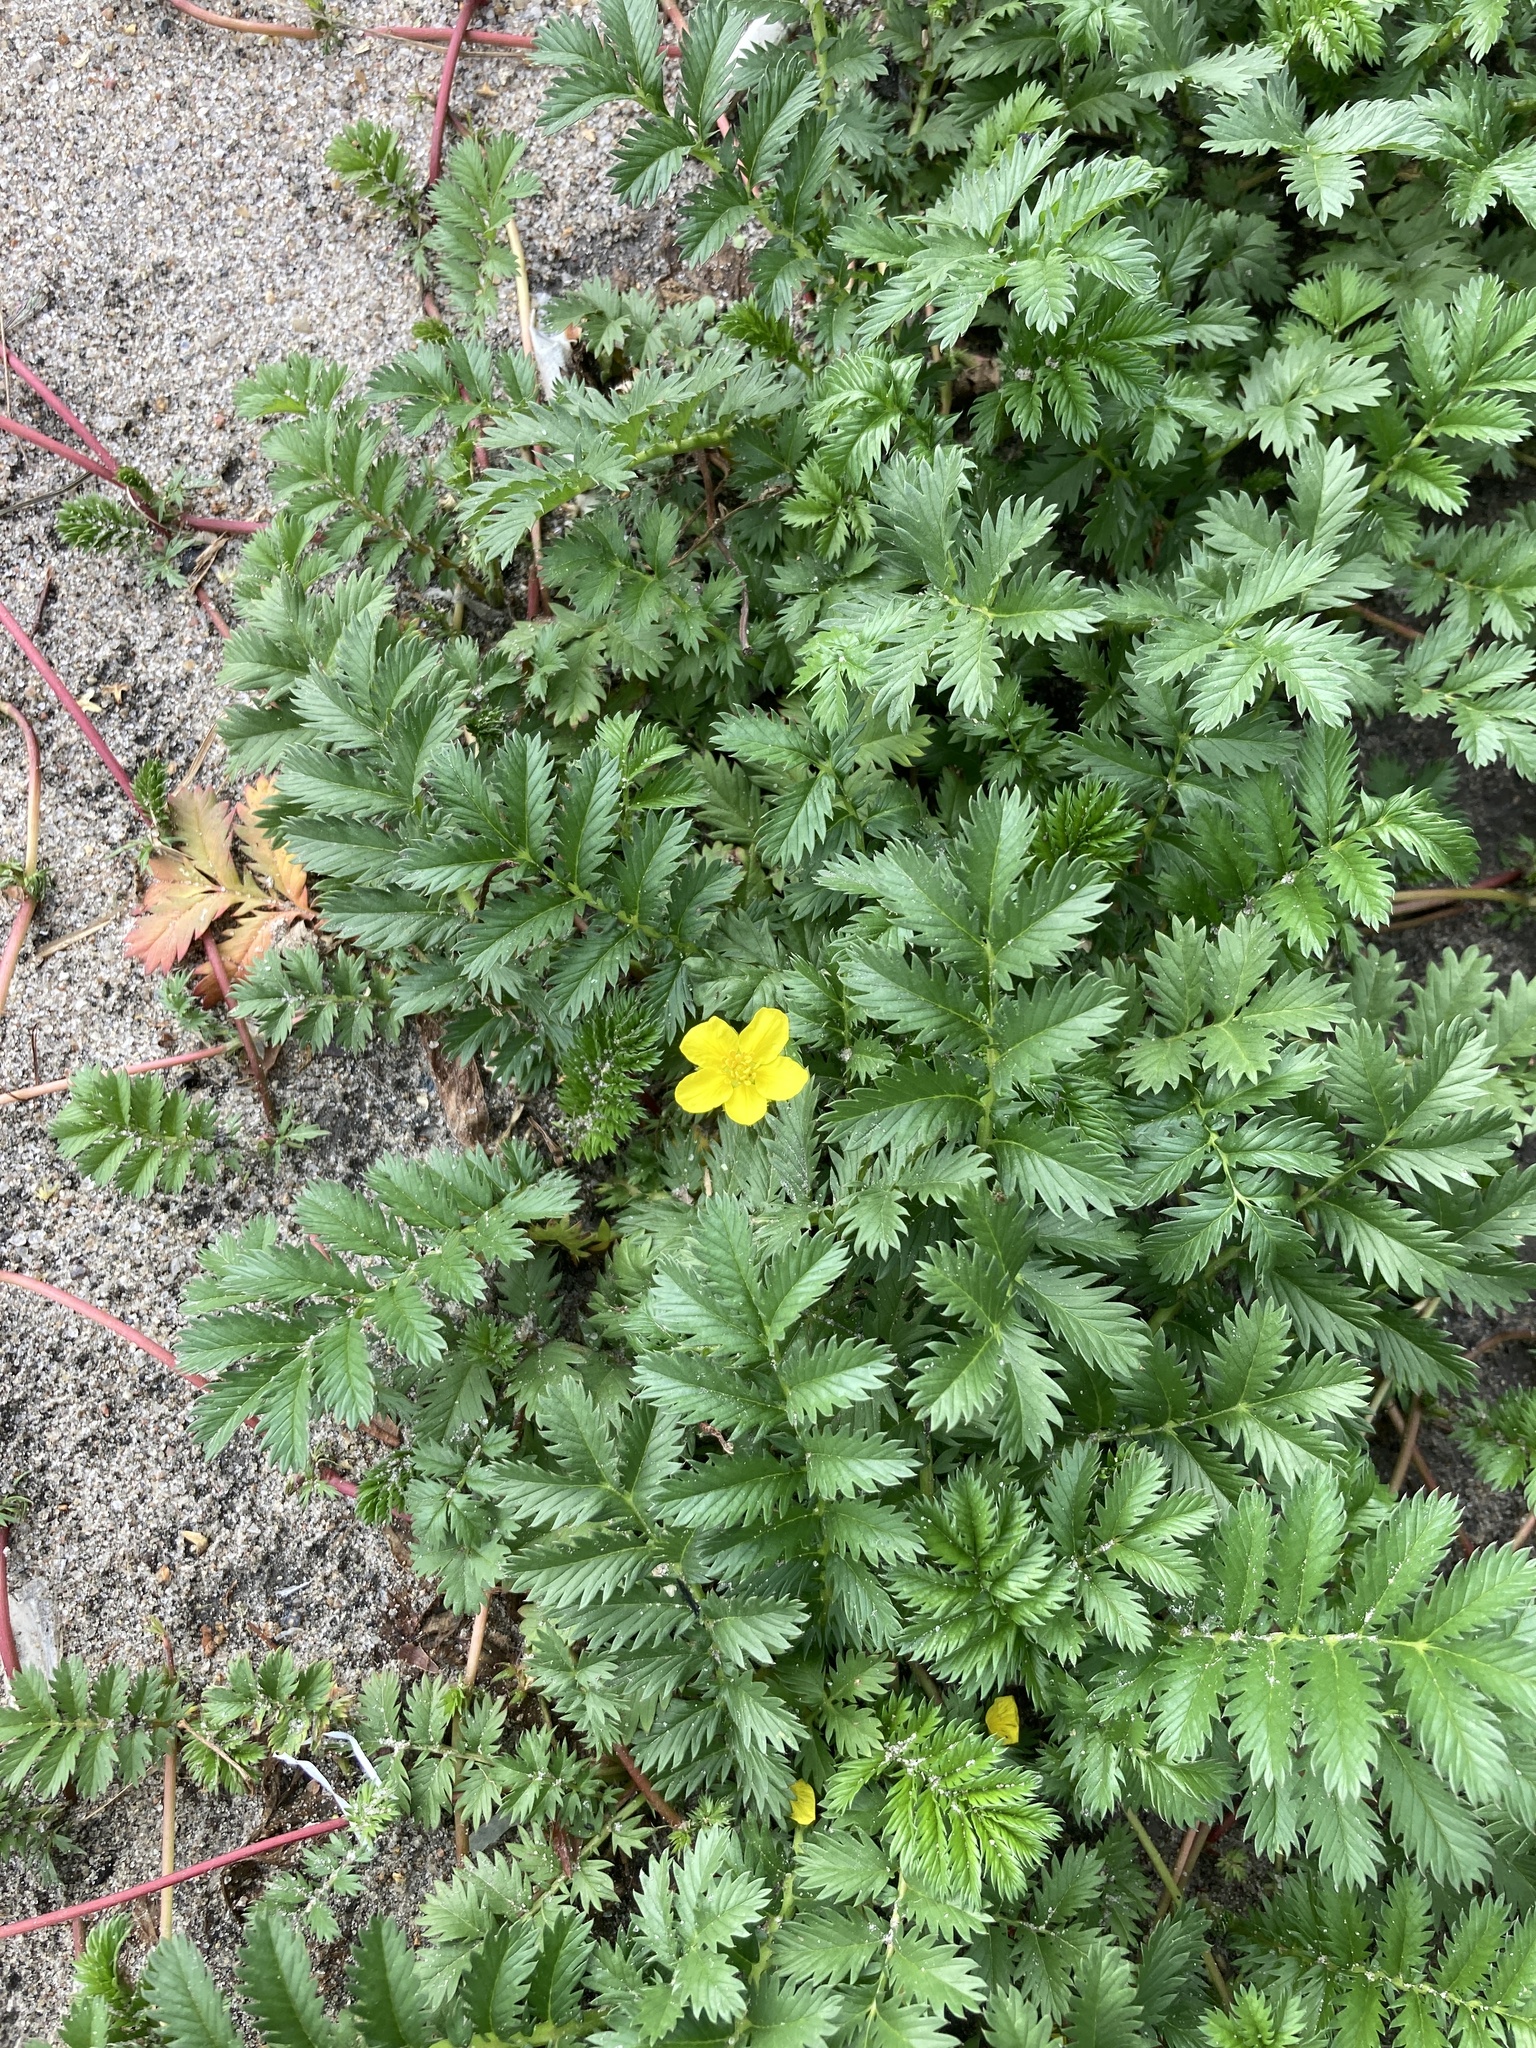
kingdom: Plantae
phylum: Tracheophyta
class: Magnoliopsida
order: Rosales
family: Rosaceae
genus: Argentina
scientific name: Argentina anserina
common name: Common silverweed
